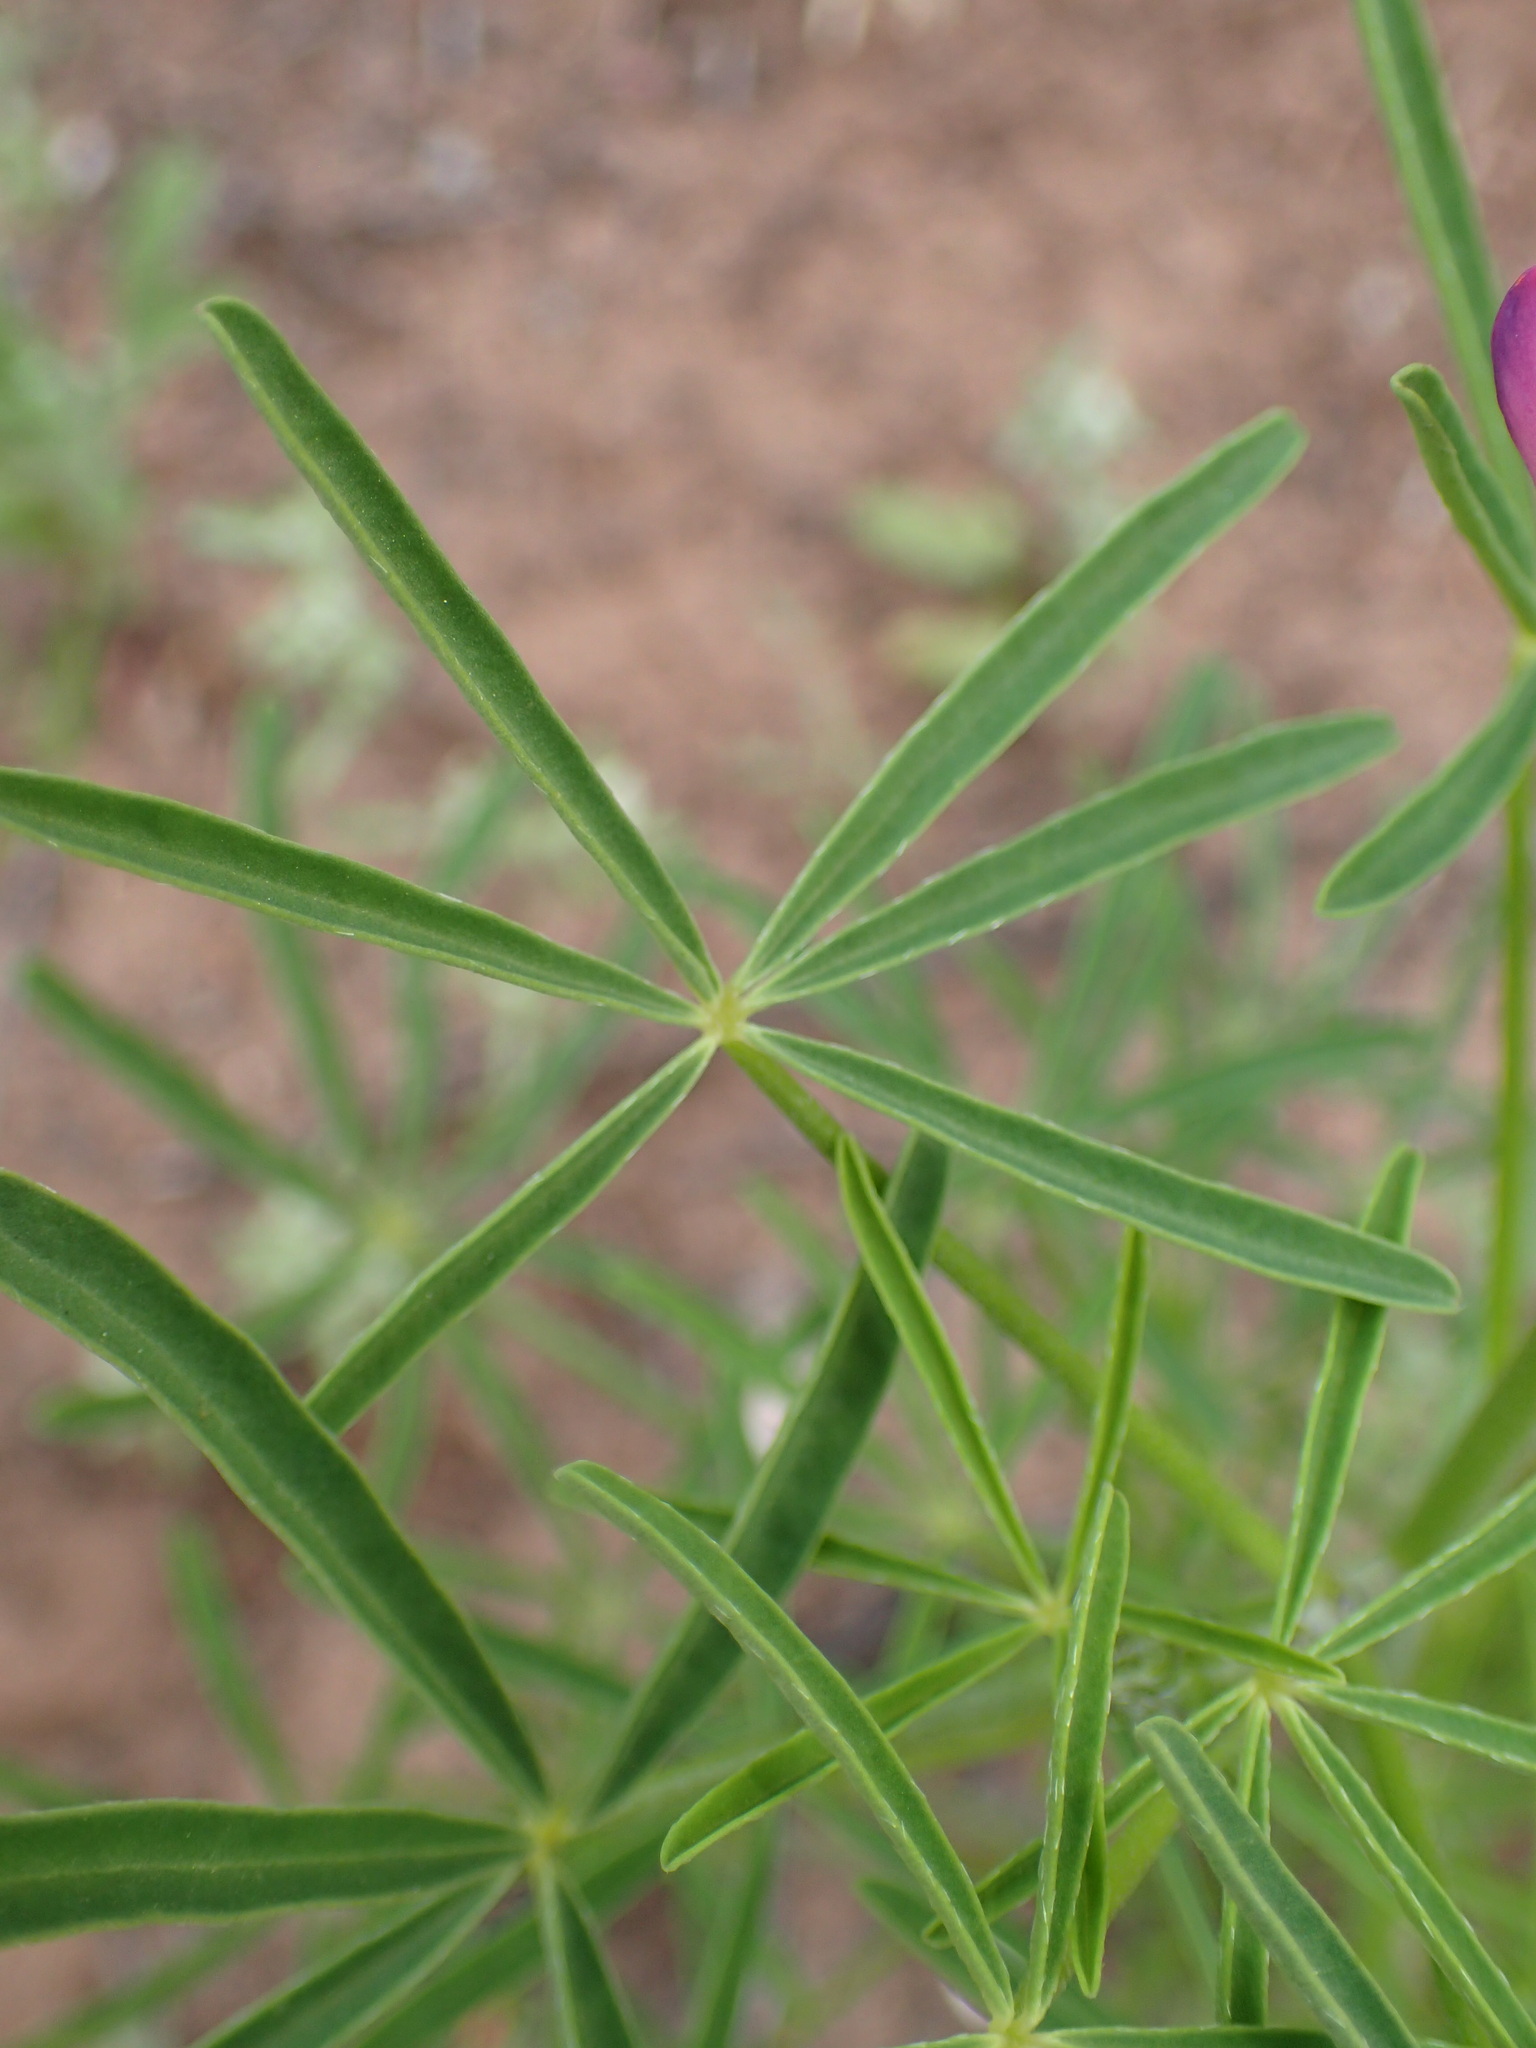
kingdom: Plantae
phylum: Tracheophyta
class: Magnoliopsida
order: Fabales
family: Fabaceae
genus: Lupinus
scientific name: Lupinus truncatus
